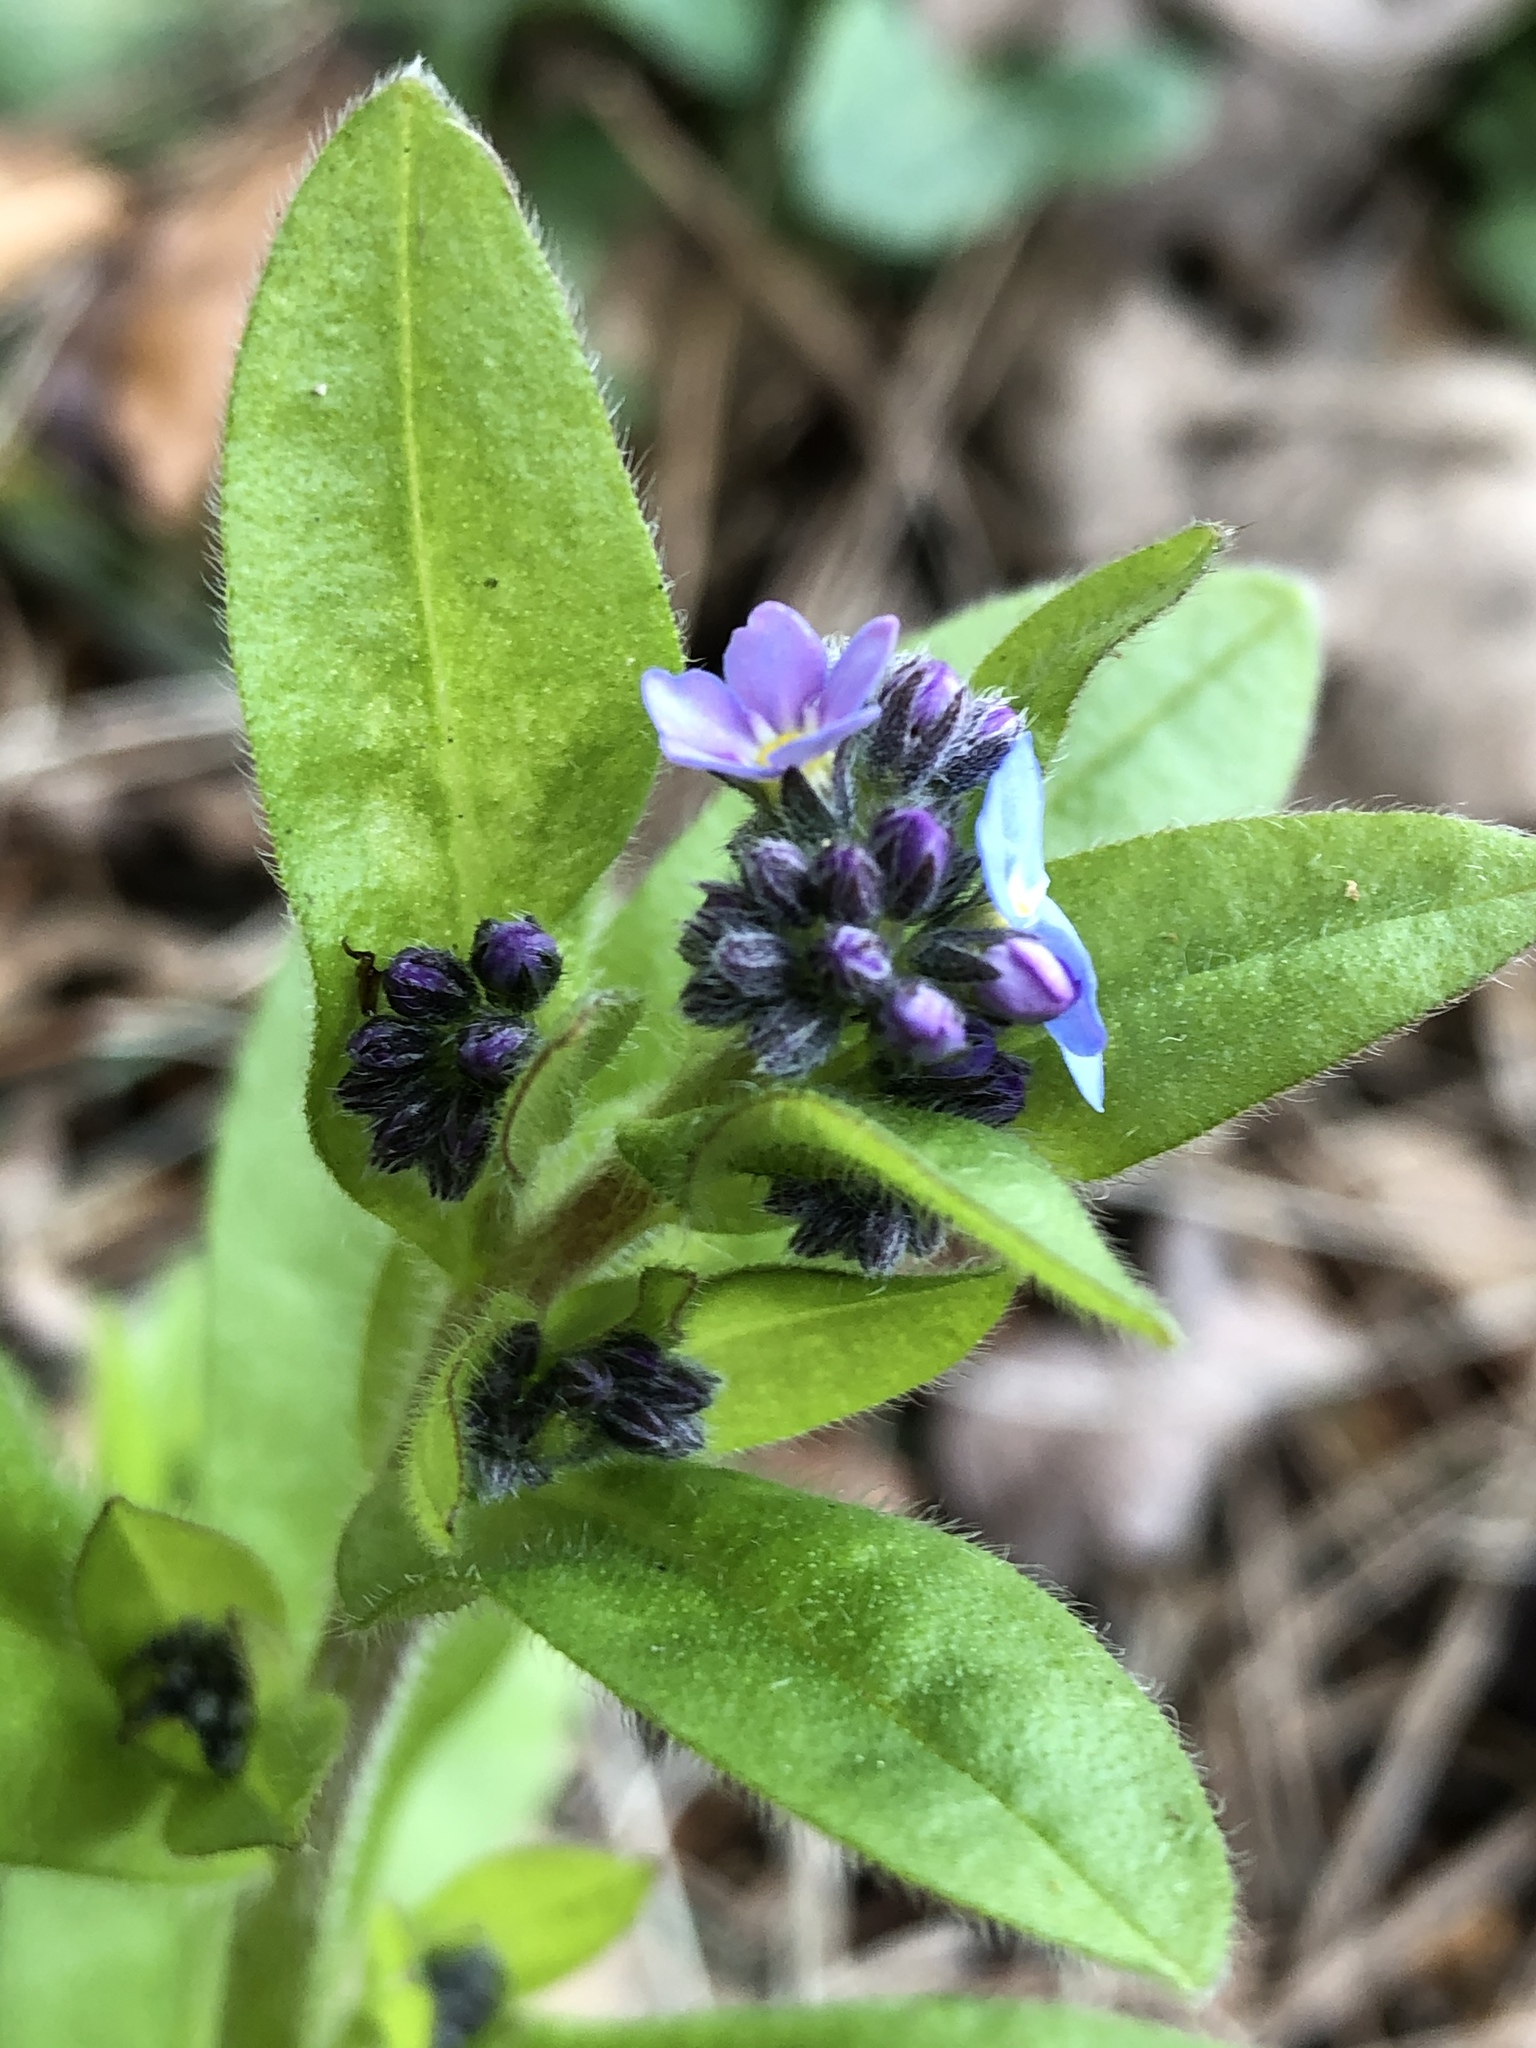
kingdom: Plantae
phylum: Tracheophyta
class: Magnoliopsida
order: Boraginales
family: Boraginaceae
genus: Myosotis
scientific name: Myosotis sylvatica
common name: Wood forget-me-not
